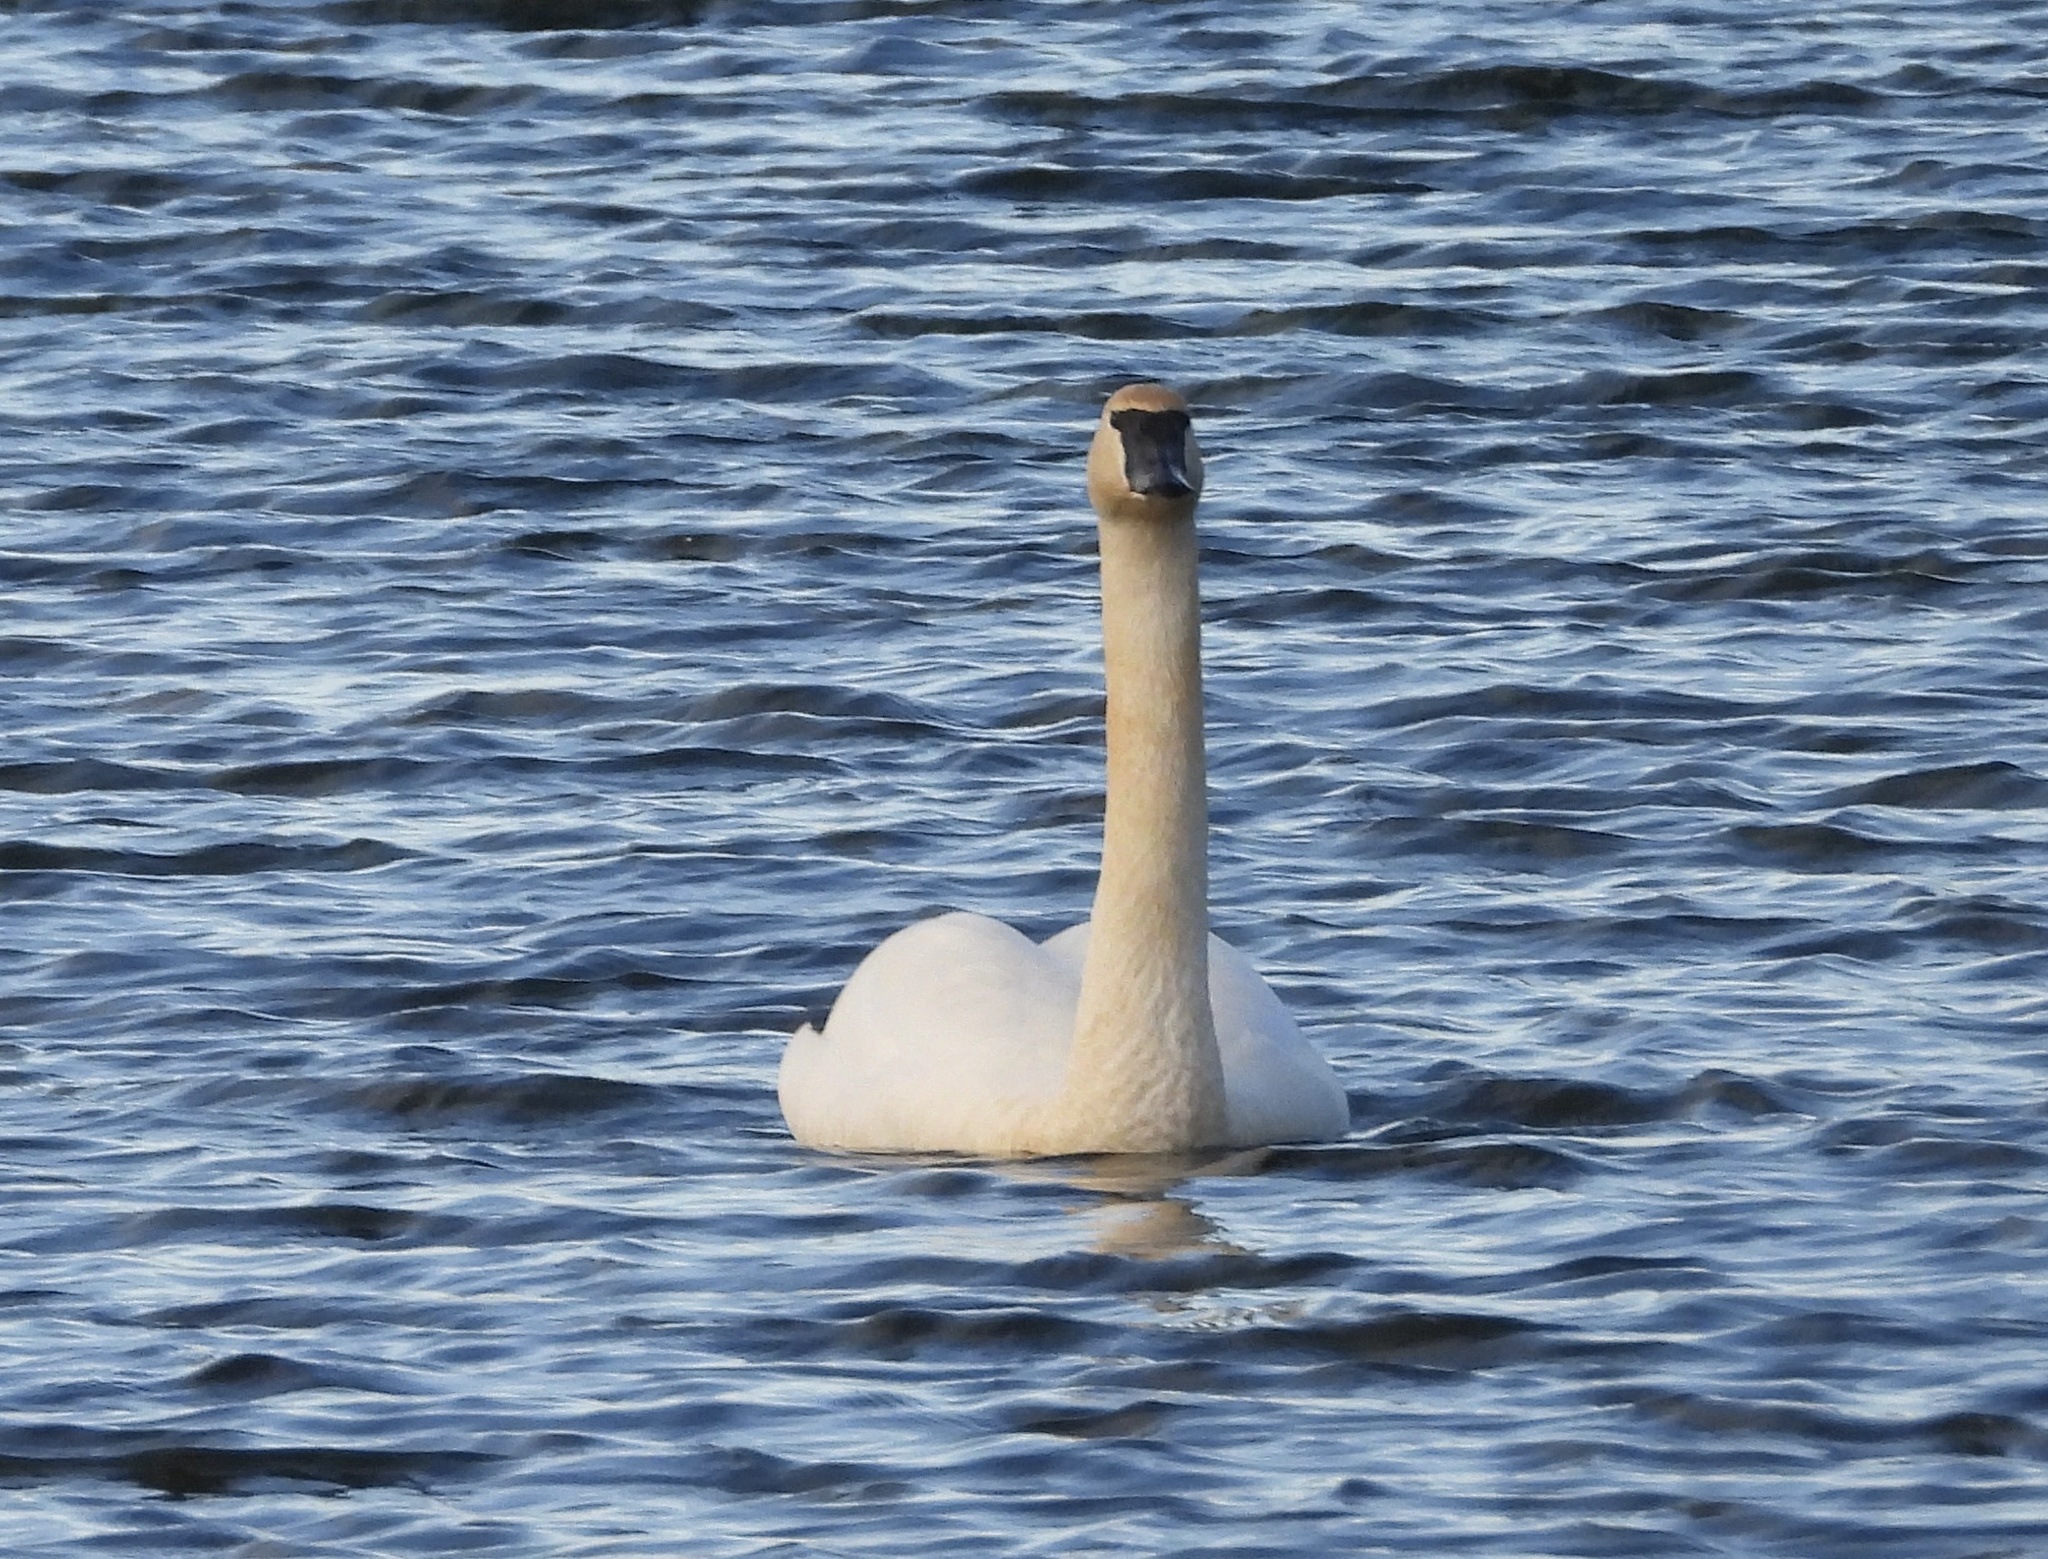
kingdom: Animalia
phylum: Chordata
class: Aves
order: Anseriformes
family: Anatidae
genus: Cygnus
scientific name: Cygnus buccinator
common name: Trumpeter swan
